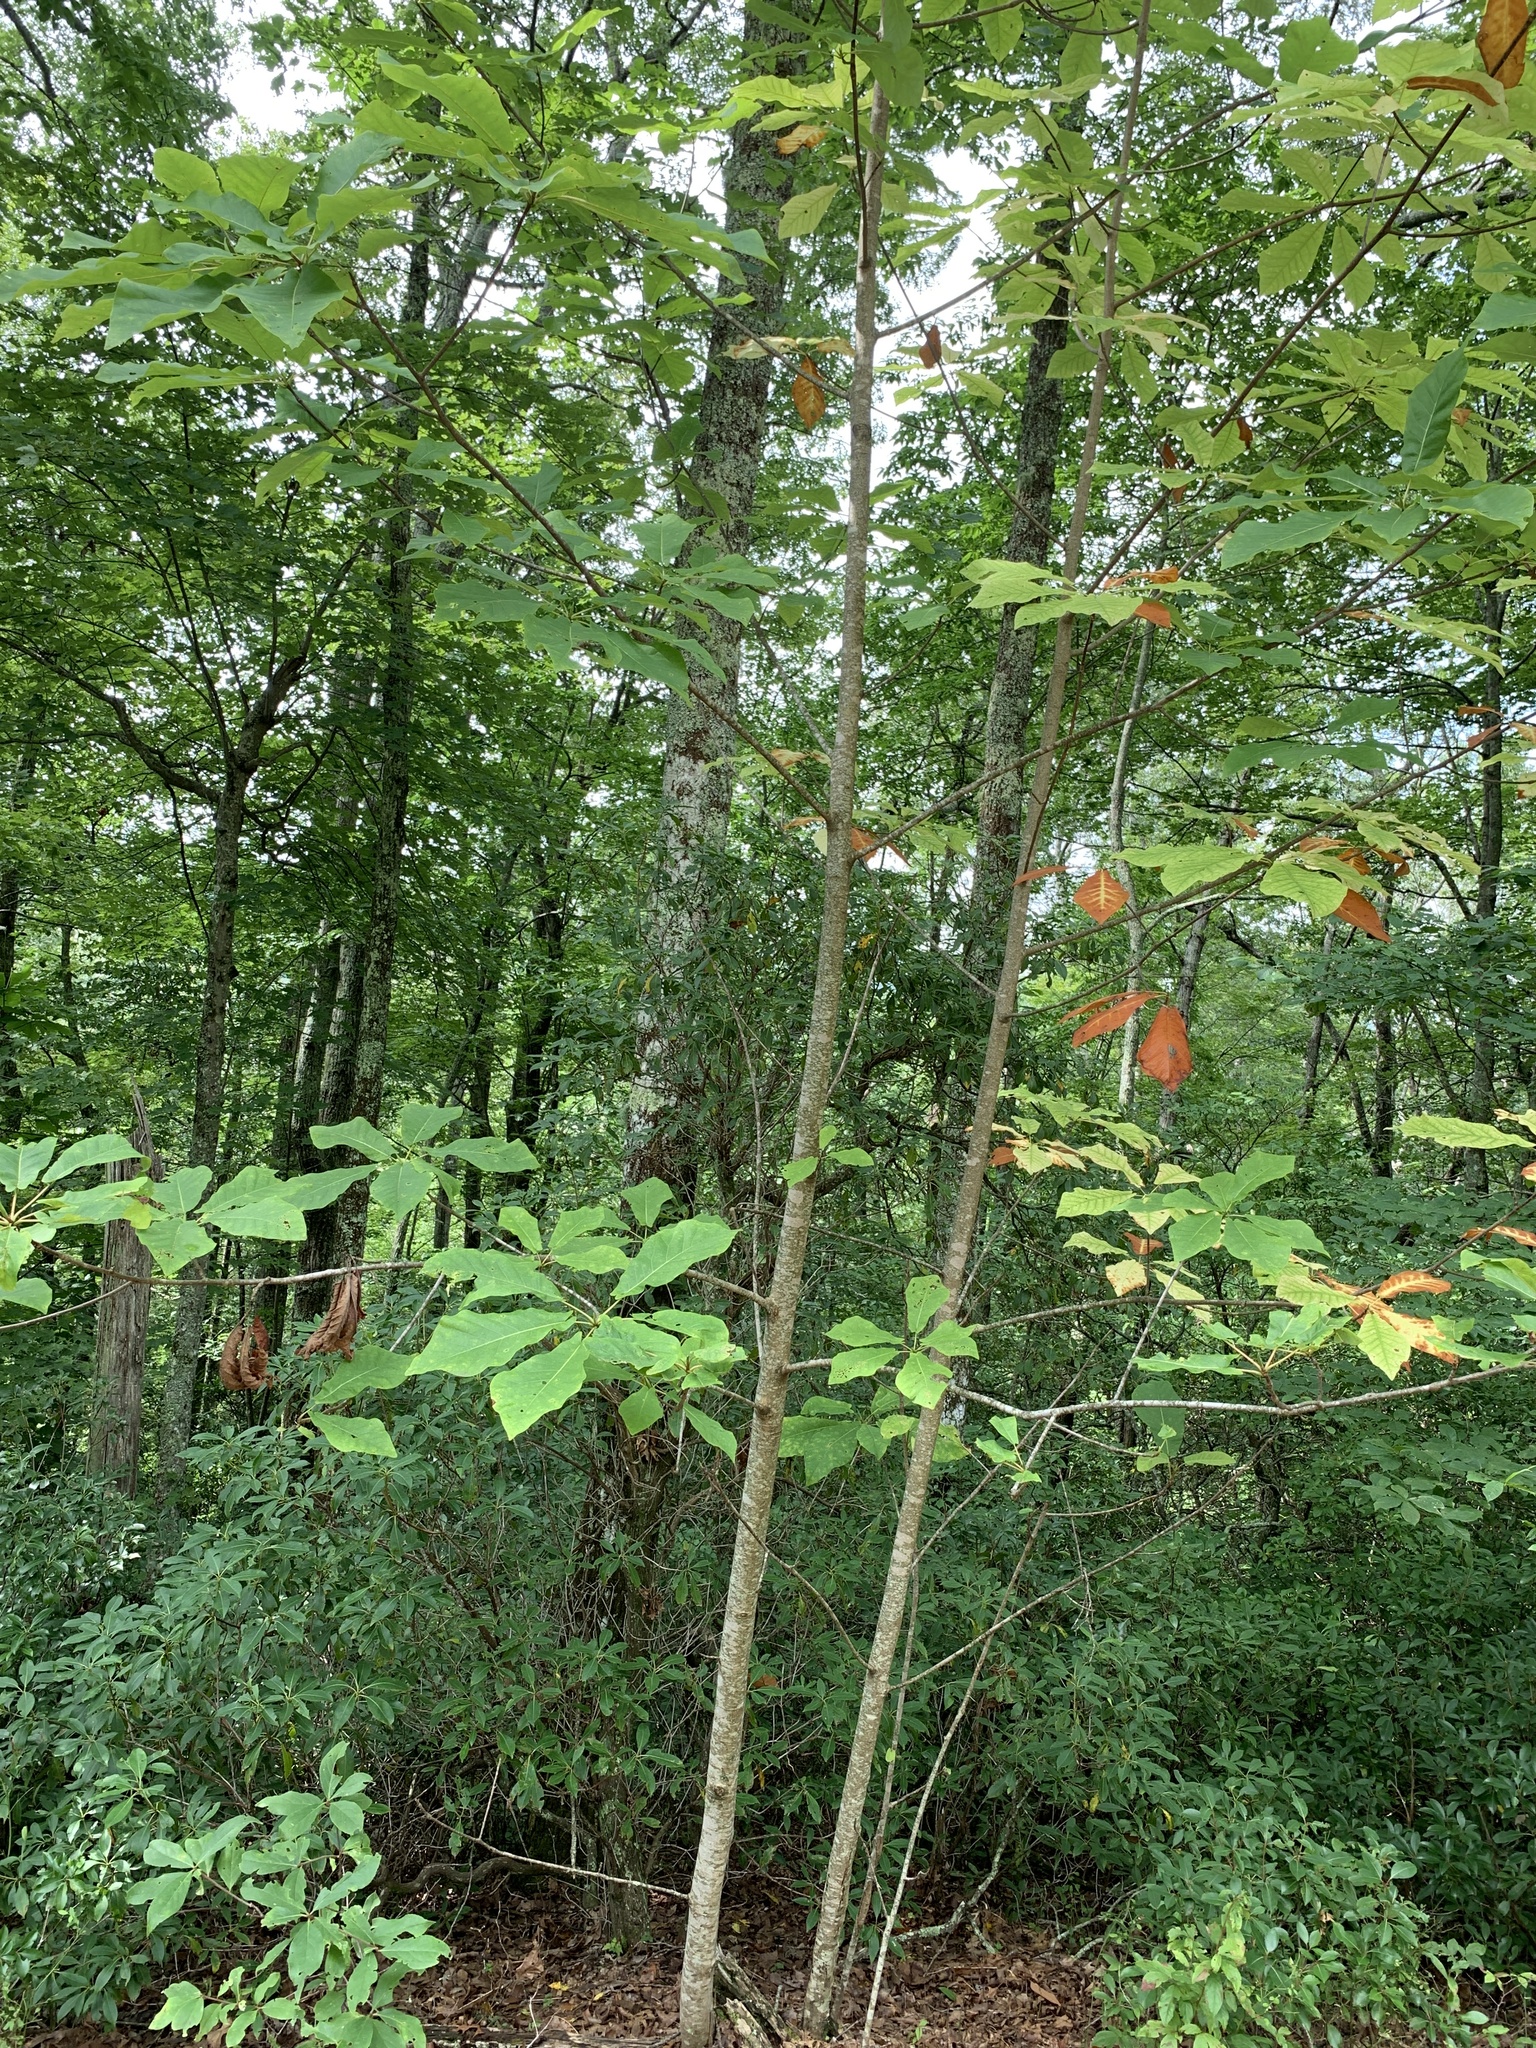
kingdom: Plantae
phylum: Tracheophyta
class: Magnoliopsida
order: Magnoliales
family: Magnoliaceae
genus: Magnolia
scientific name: Magnolia fraseri
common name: Fraser's magnolia
